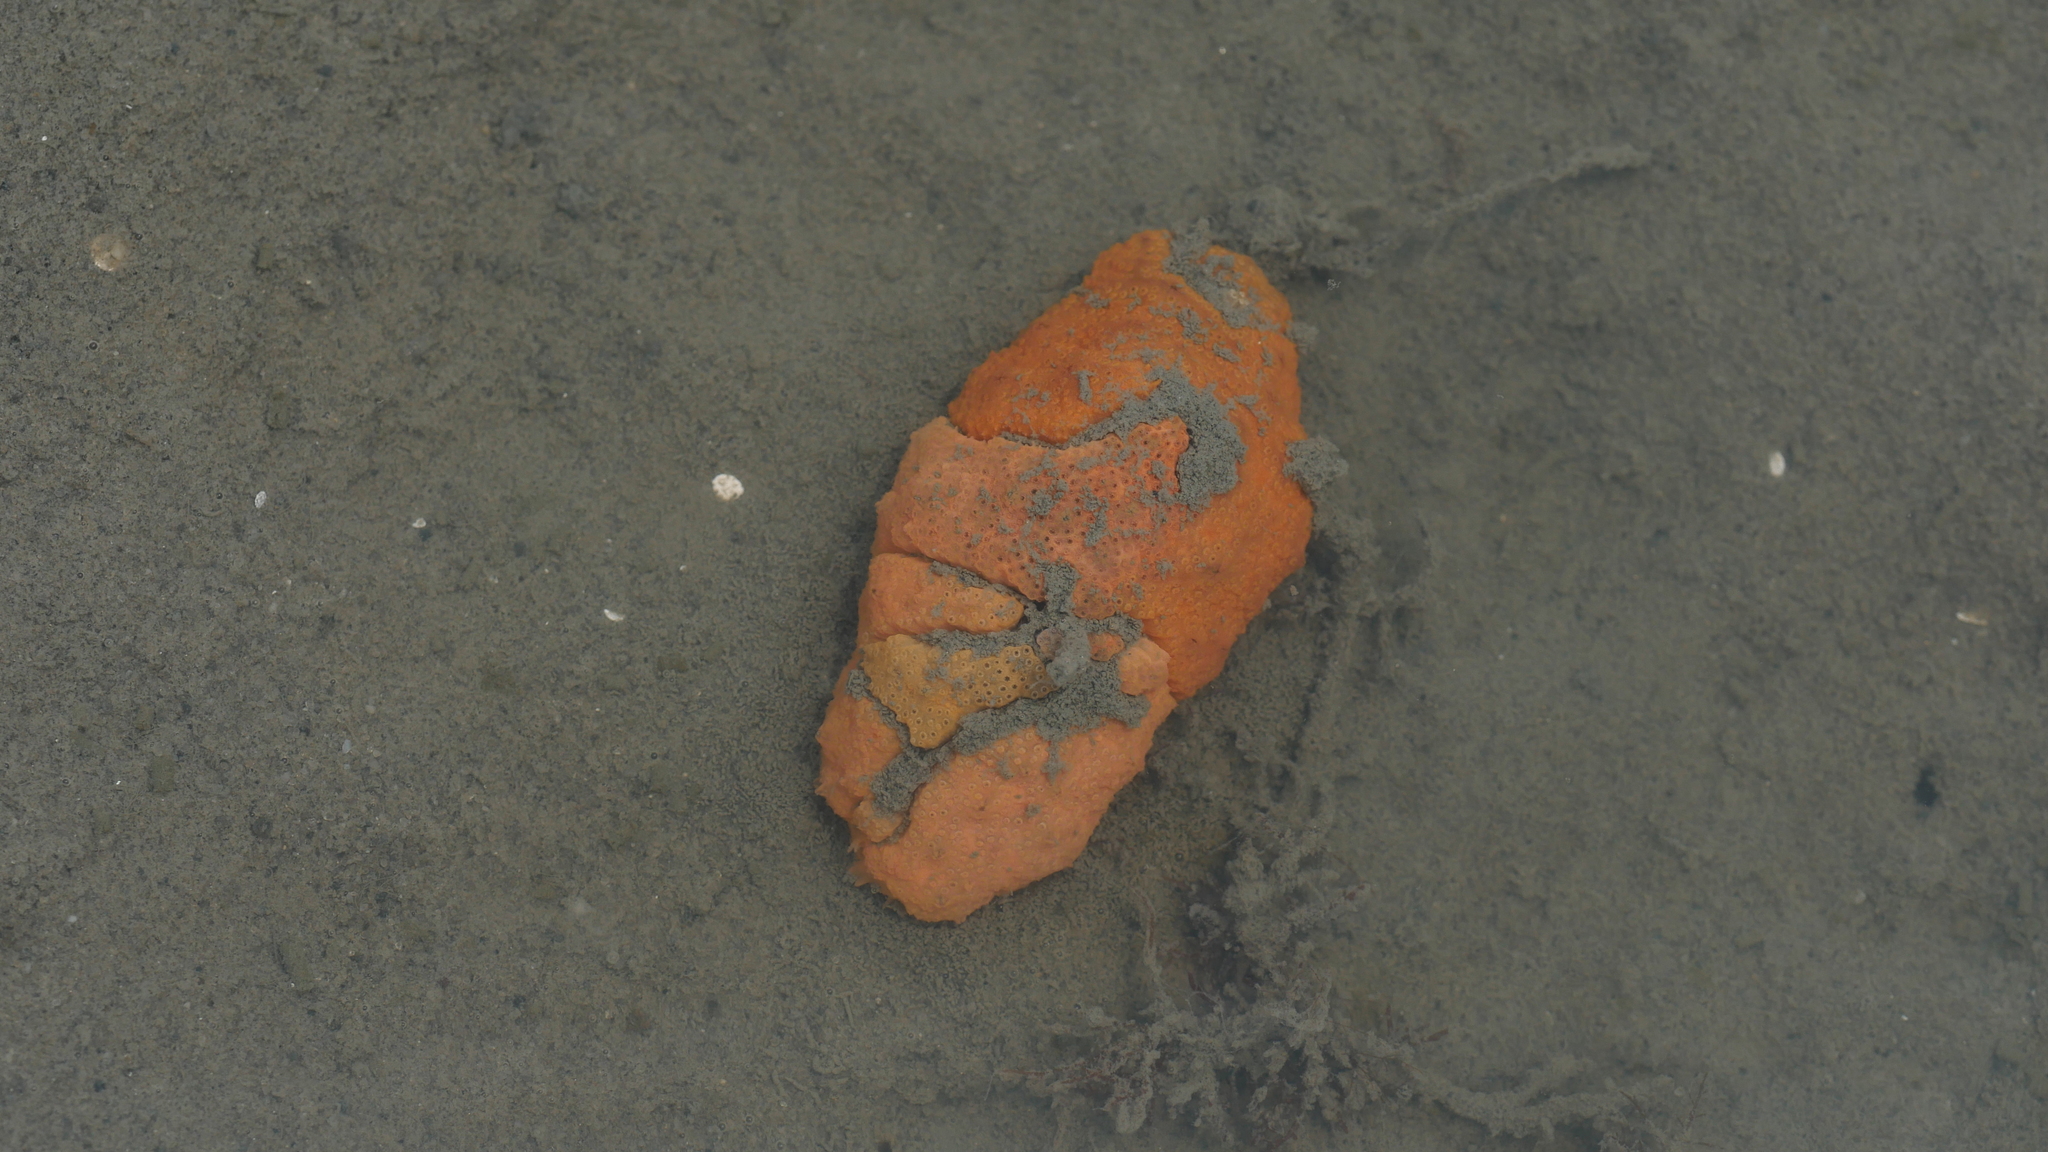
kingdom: Animalia
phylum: Chordata
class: Ascidiacea
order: Aplousobranchia
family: Polyclinidae
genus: Aplidium
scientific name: Aplidium stellatum
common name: Atlantic sea pork
